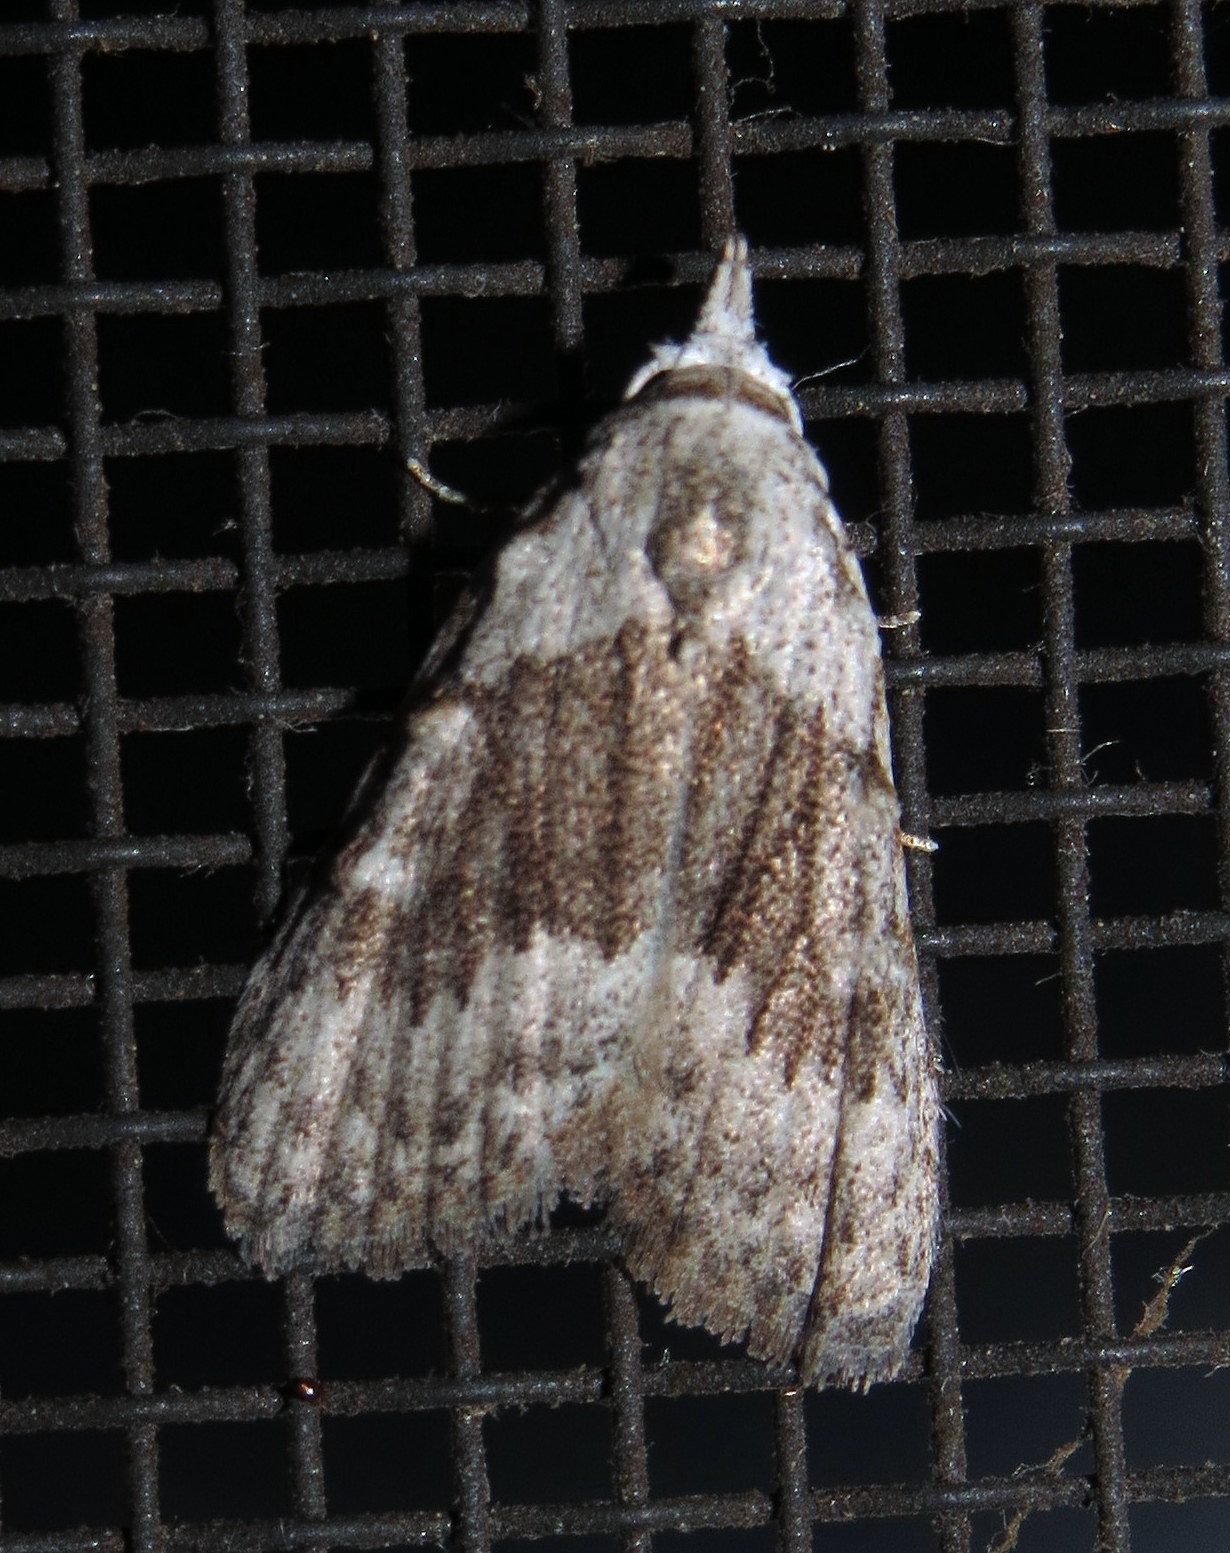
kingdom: Animalia
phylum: Arthropoda
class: Insecta
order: Lepidoptera
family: Nolidae
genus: Nola
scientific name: Nola clethrae
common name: Sweet pepperbush nola moth
